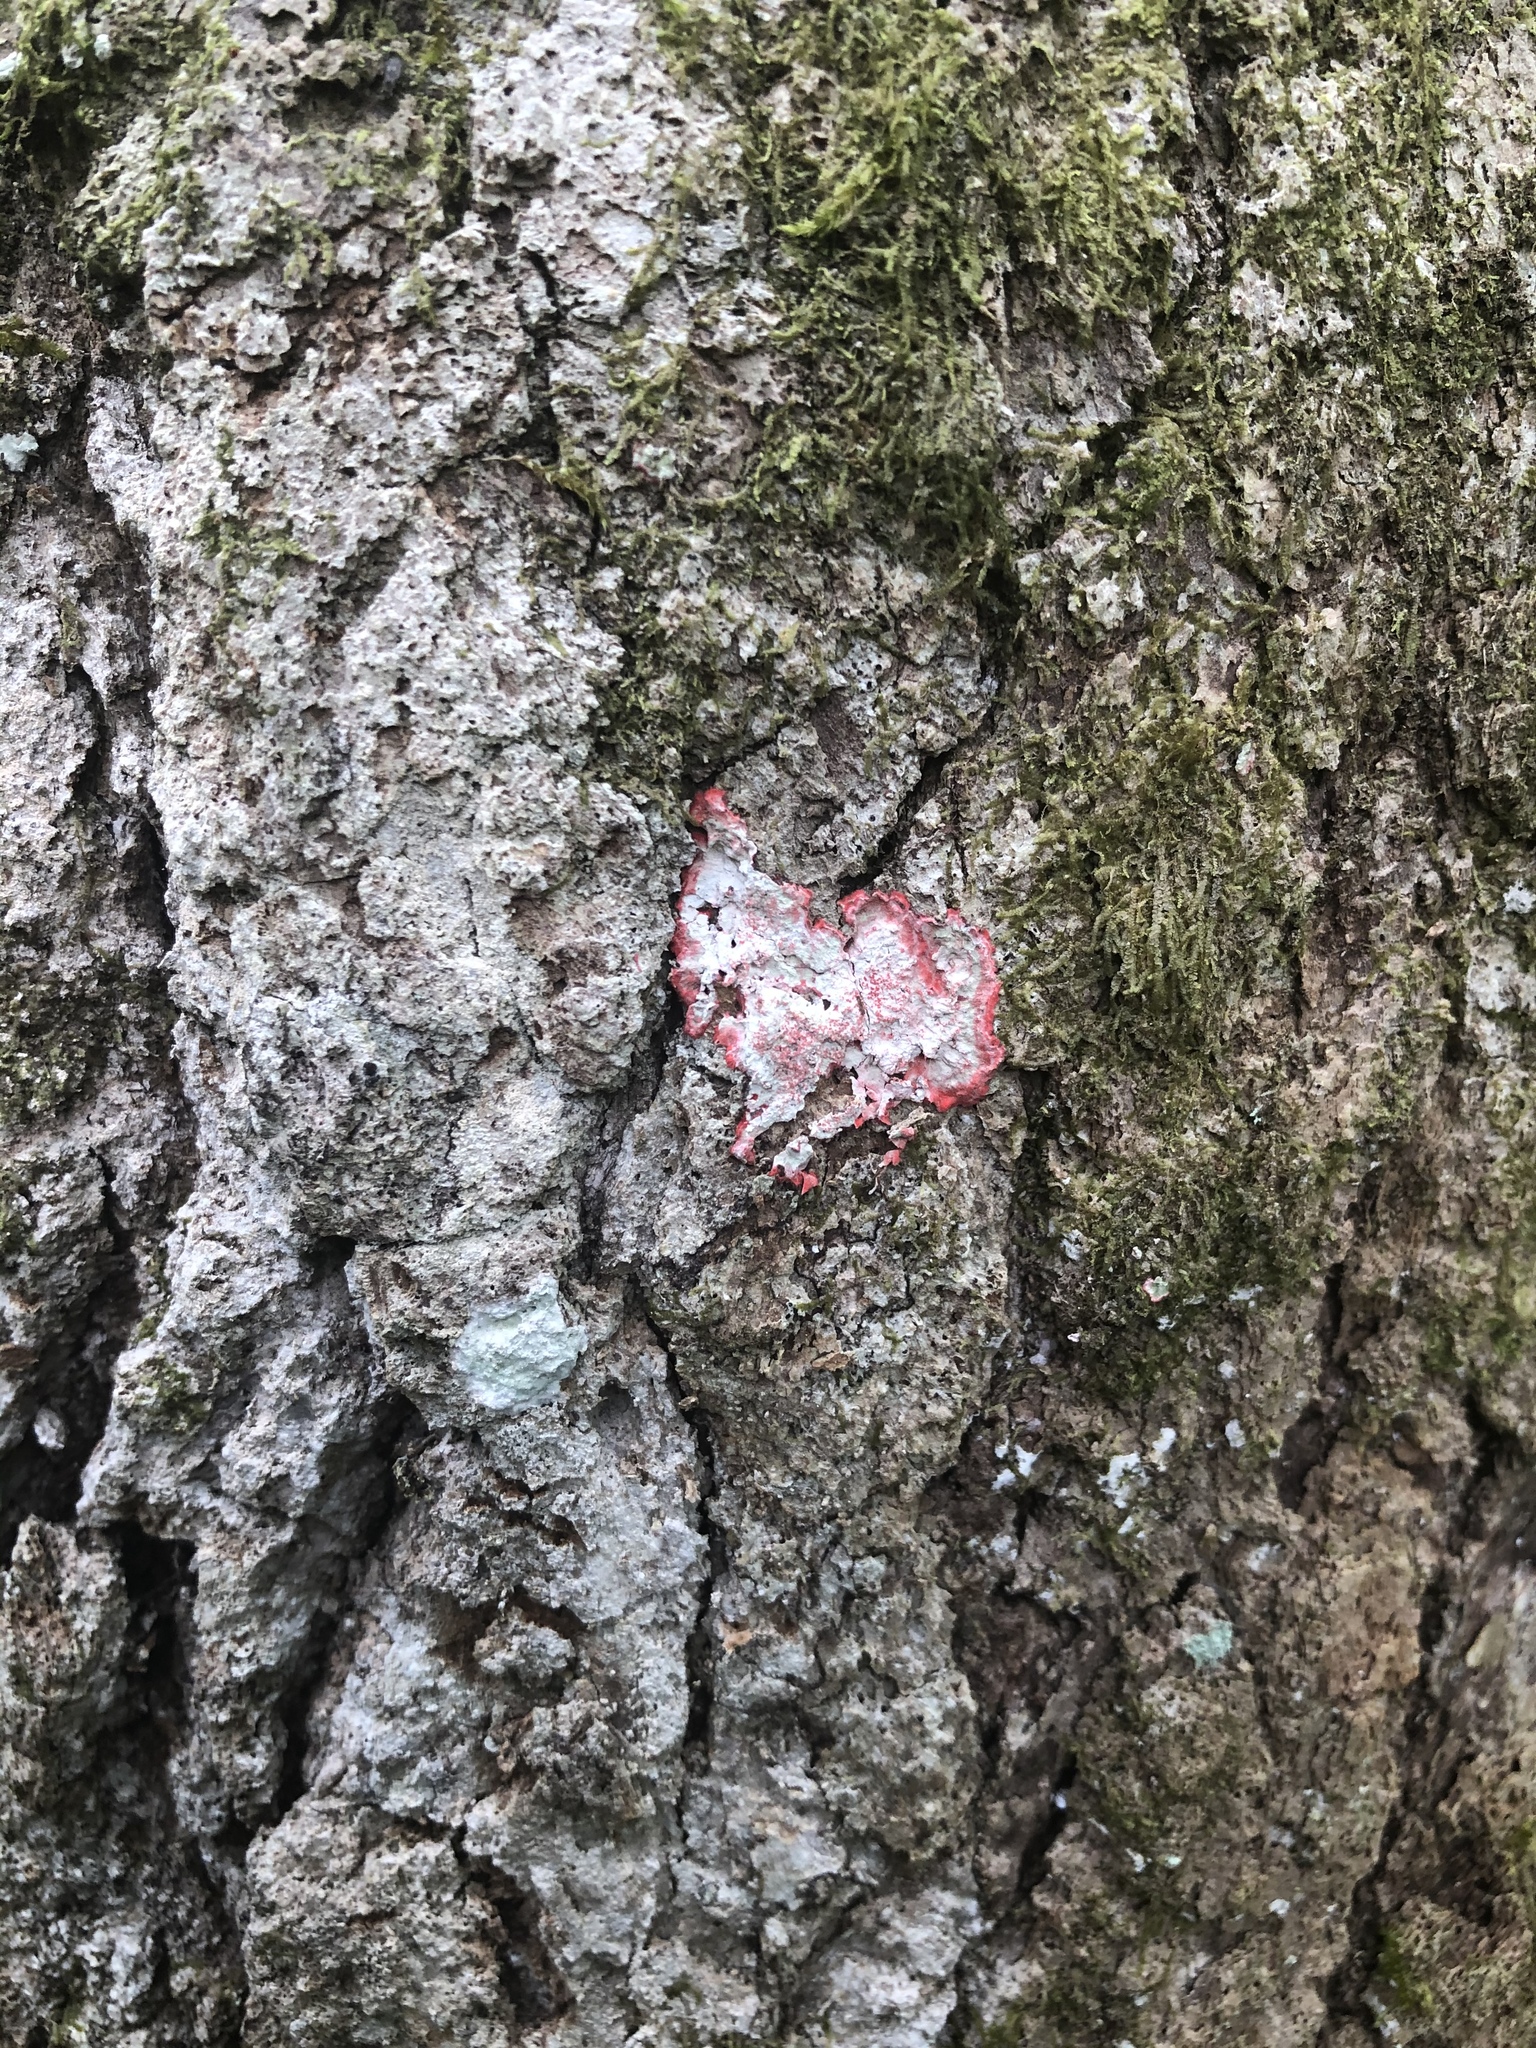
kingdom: Fungi
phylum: Ascomycota
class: Arthoniomycetes
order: Arthoniales
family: Arthoniaceae
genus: Herpothallon
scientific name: Herpothallon rubrocinctum
